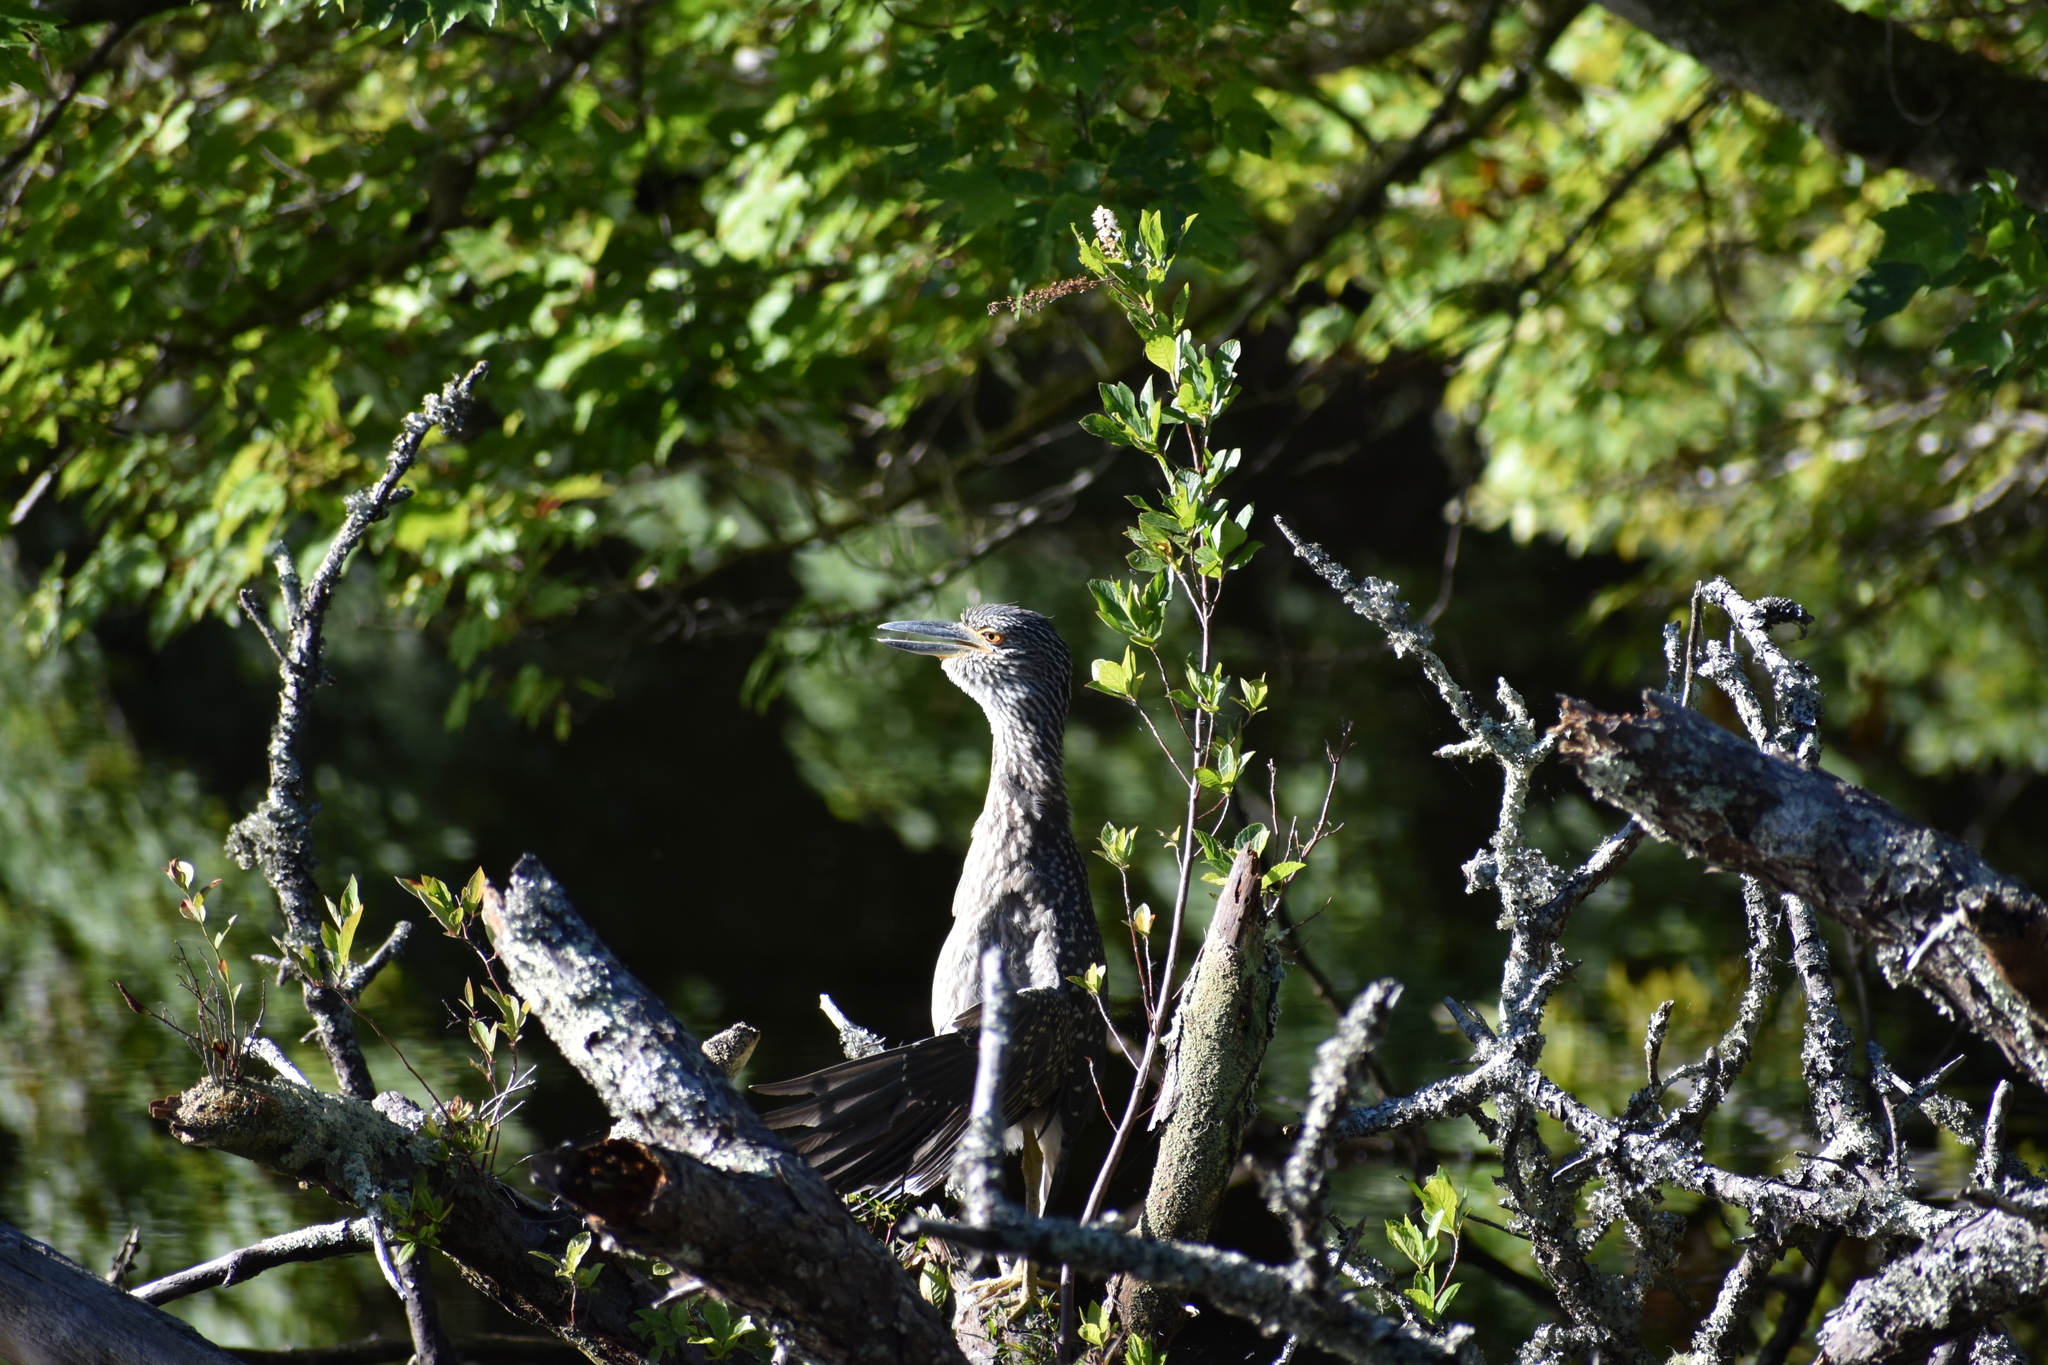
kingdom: Animalia
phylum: Chordata
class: Aves
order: Pelecaniformes
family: Ardeidae
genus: Nyctanassa
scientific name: Nyctanassa violacea
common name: Yellow-crowned night heron
